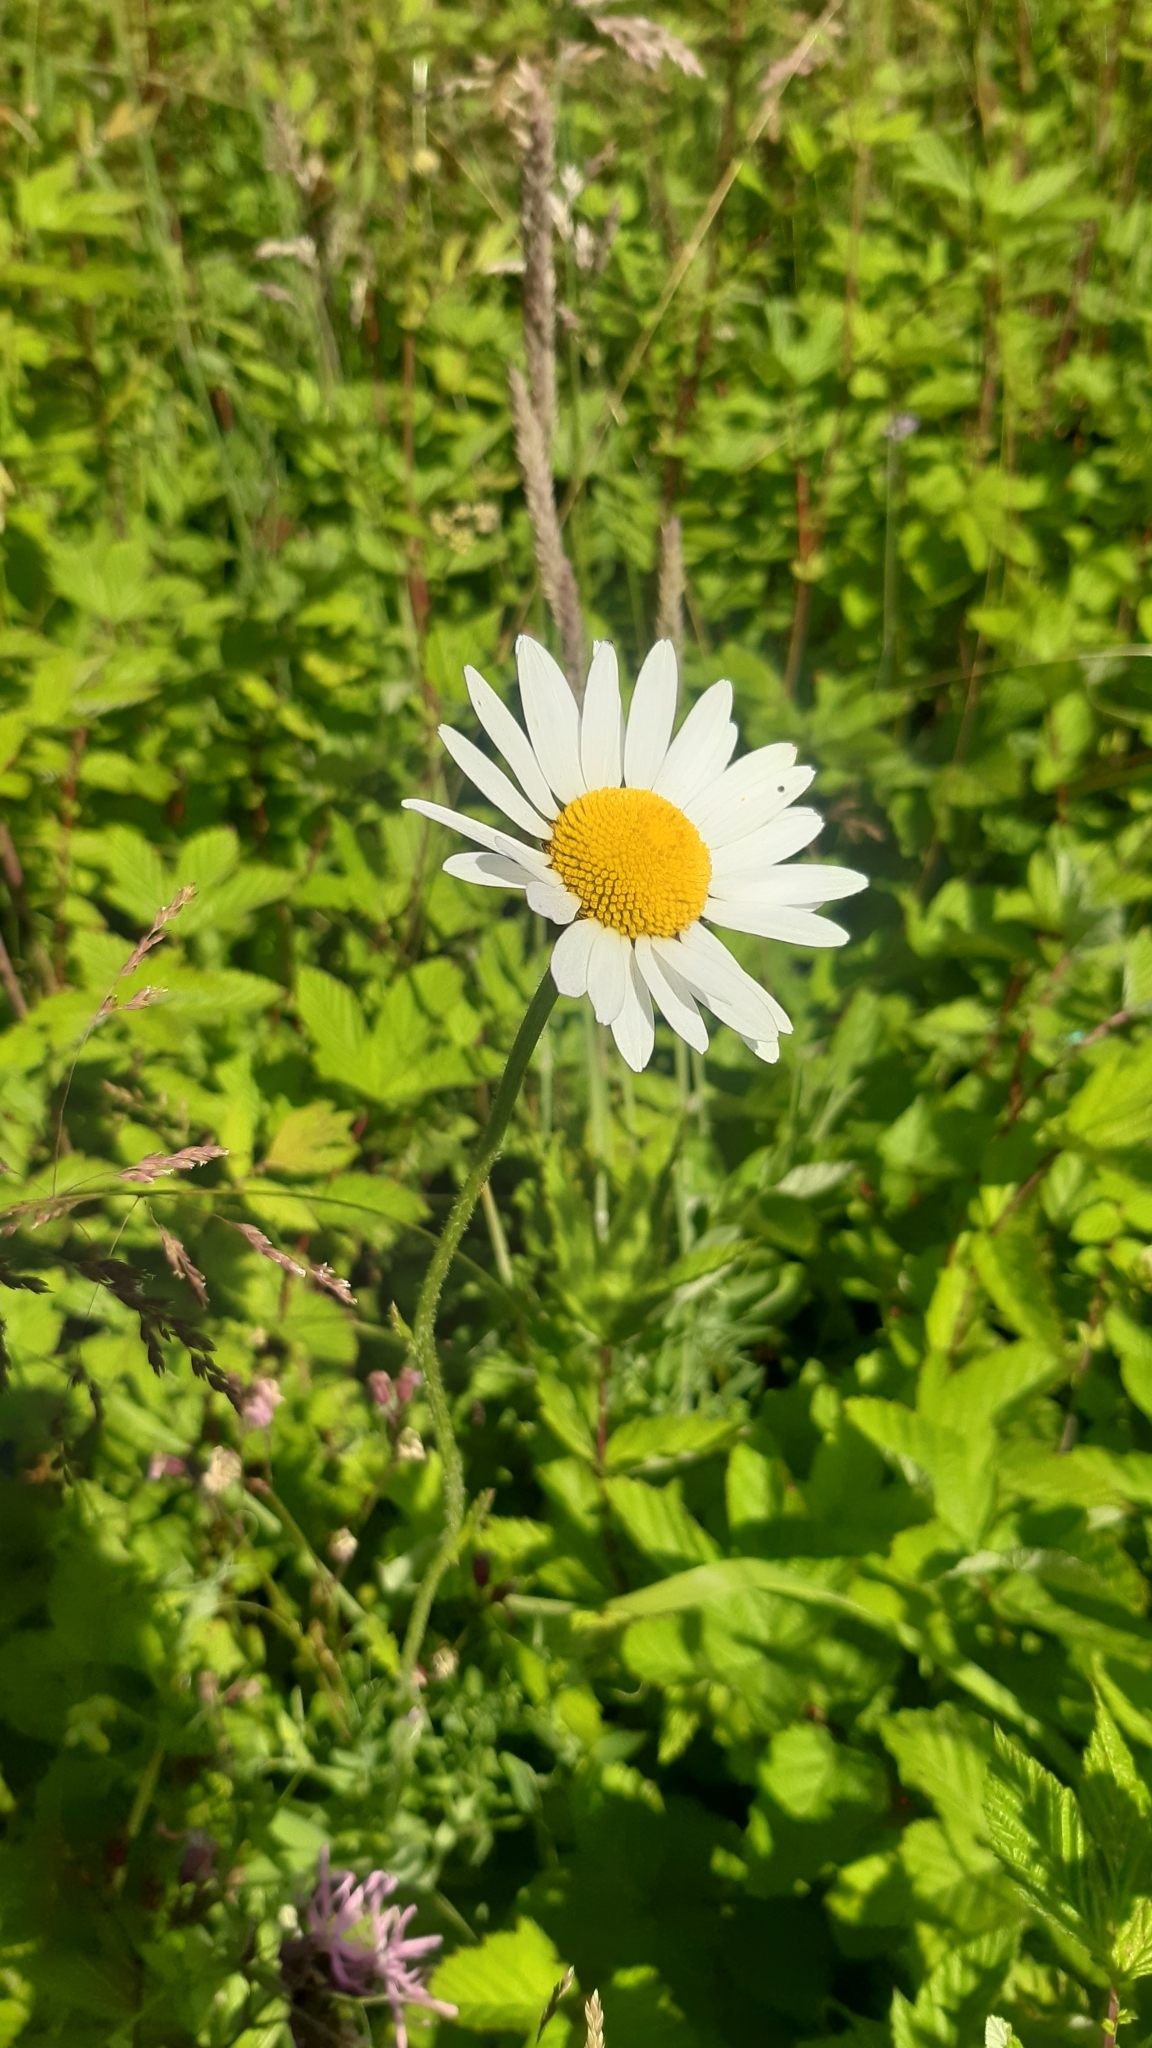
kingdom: Plantae
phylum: Tracheophyta
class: Magnoliopsida
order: Asterales
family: Asteraceae
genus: Leucanthemum
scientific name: Leucanthemum vulgare
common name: Oxeye daisy
